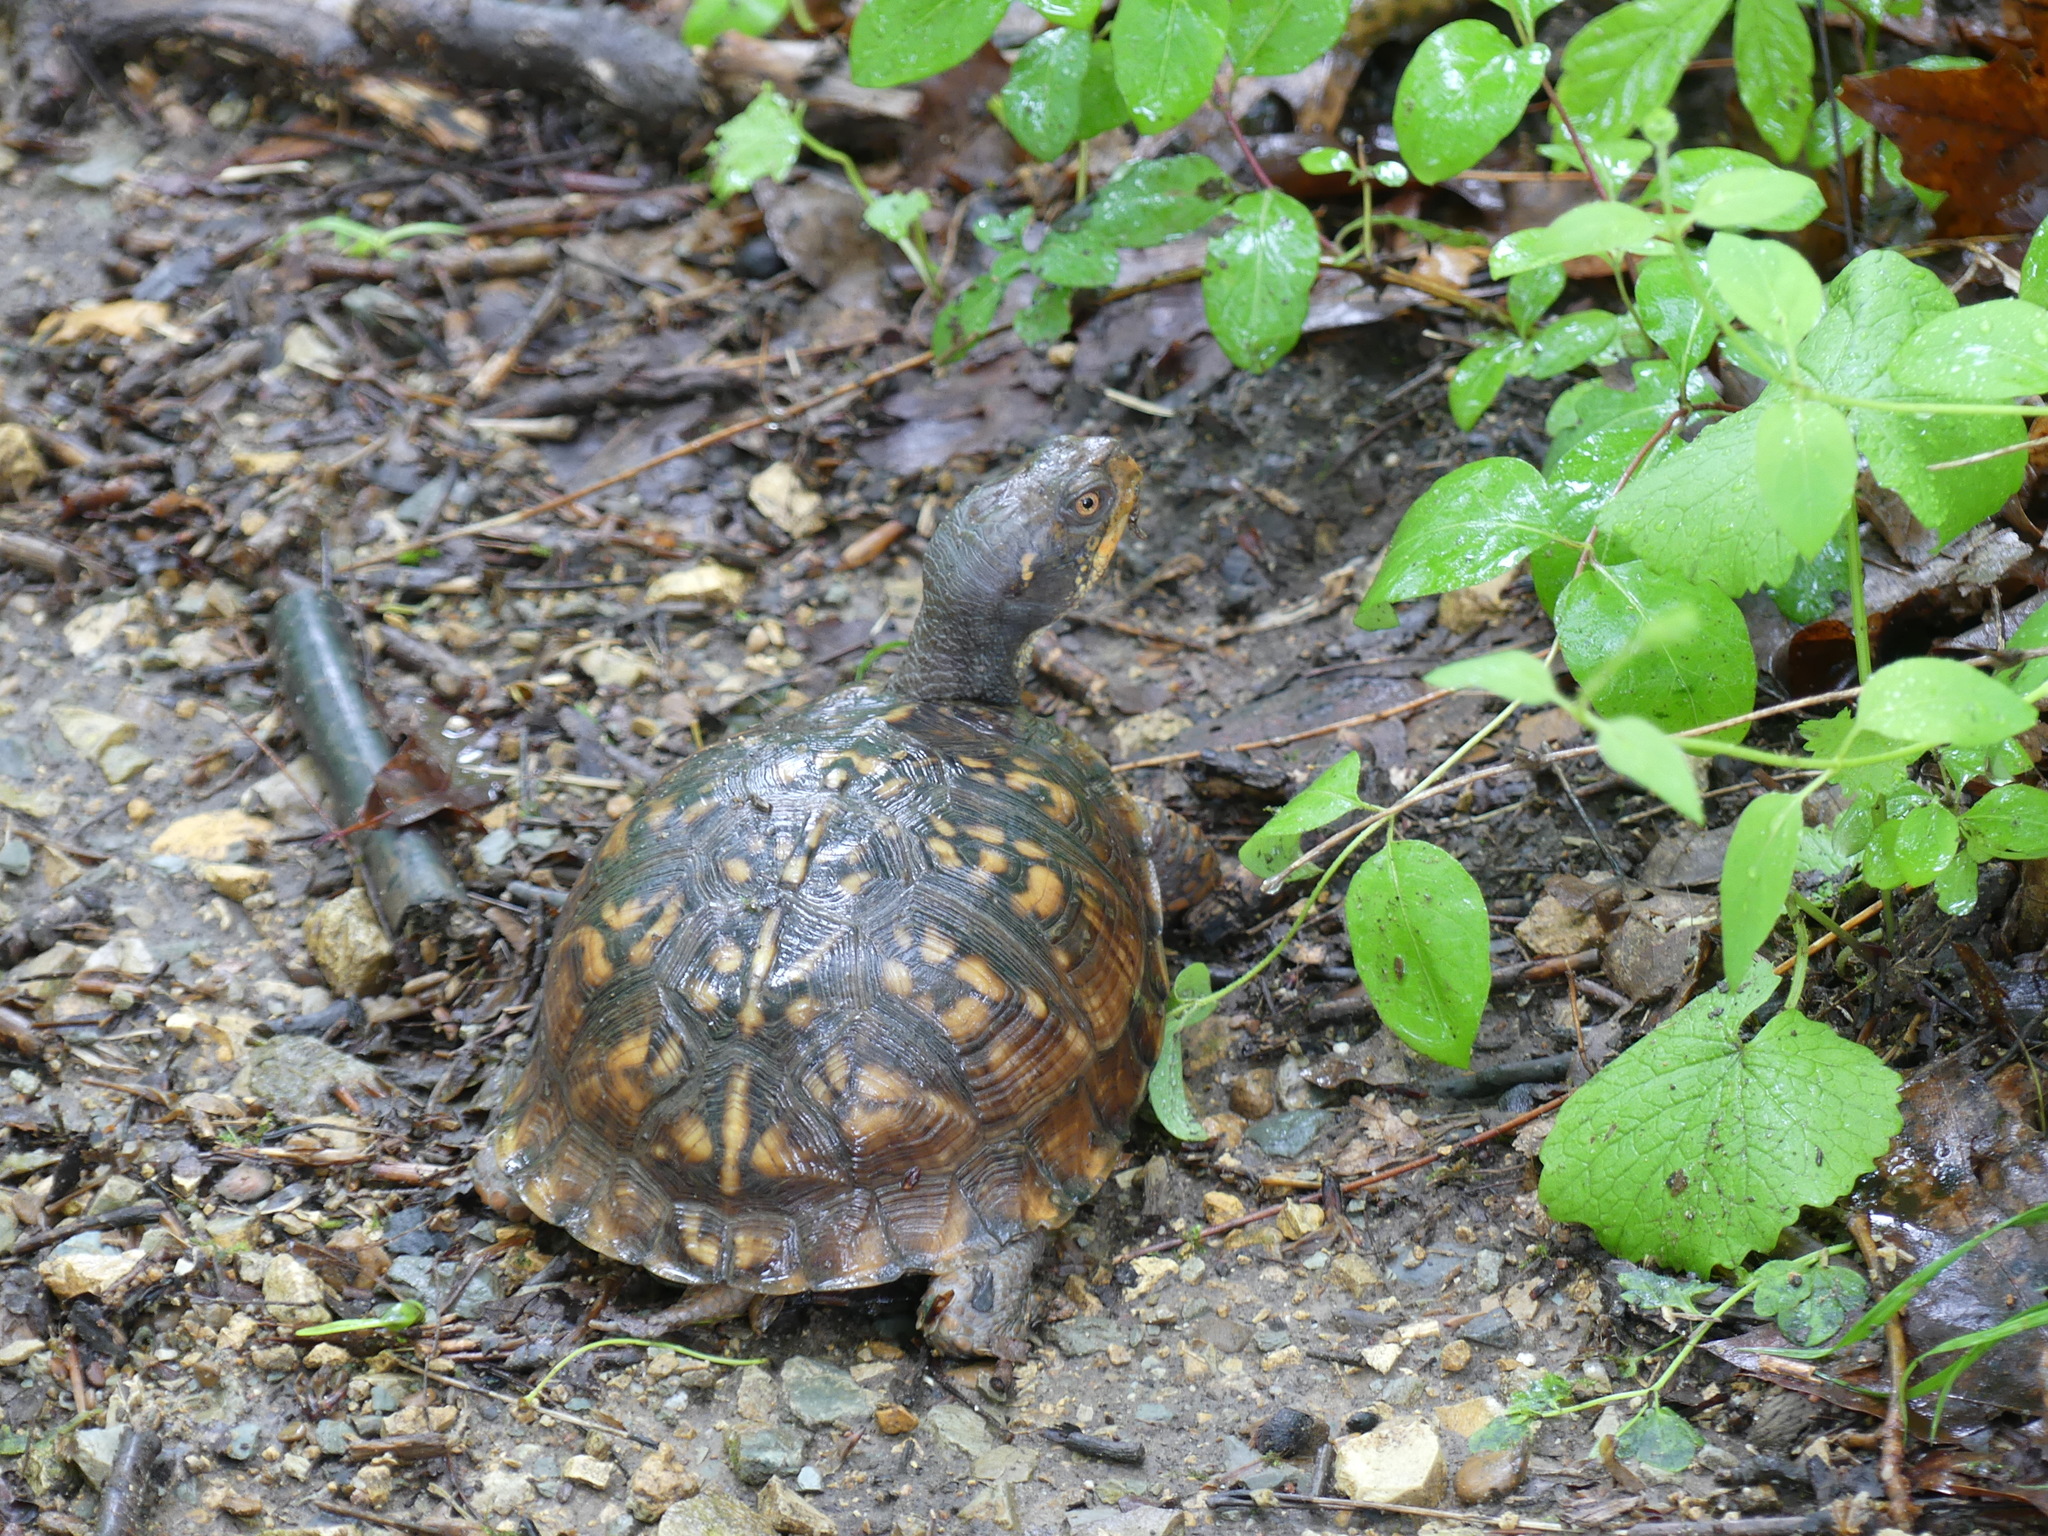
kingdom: Animalia
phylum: Chordata
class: Testudines
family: Emydidae
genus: Terrapene
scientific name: Terrapene carolina
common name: Common box turtle
